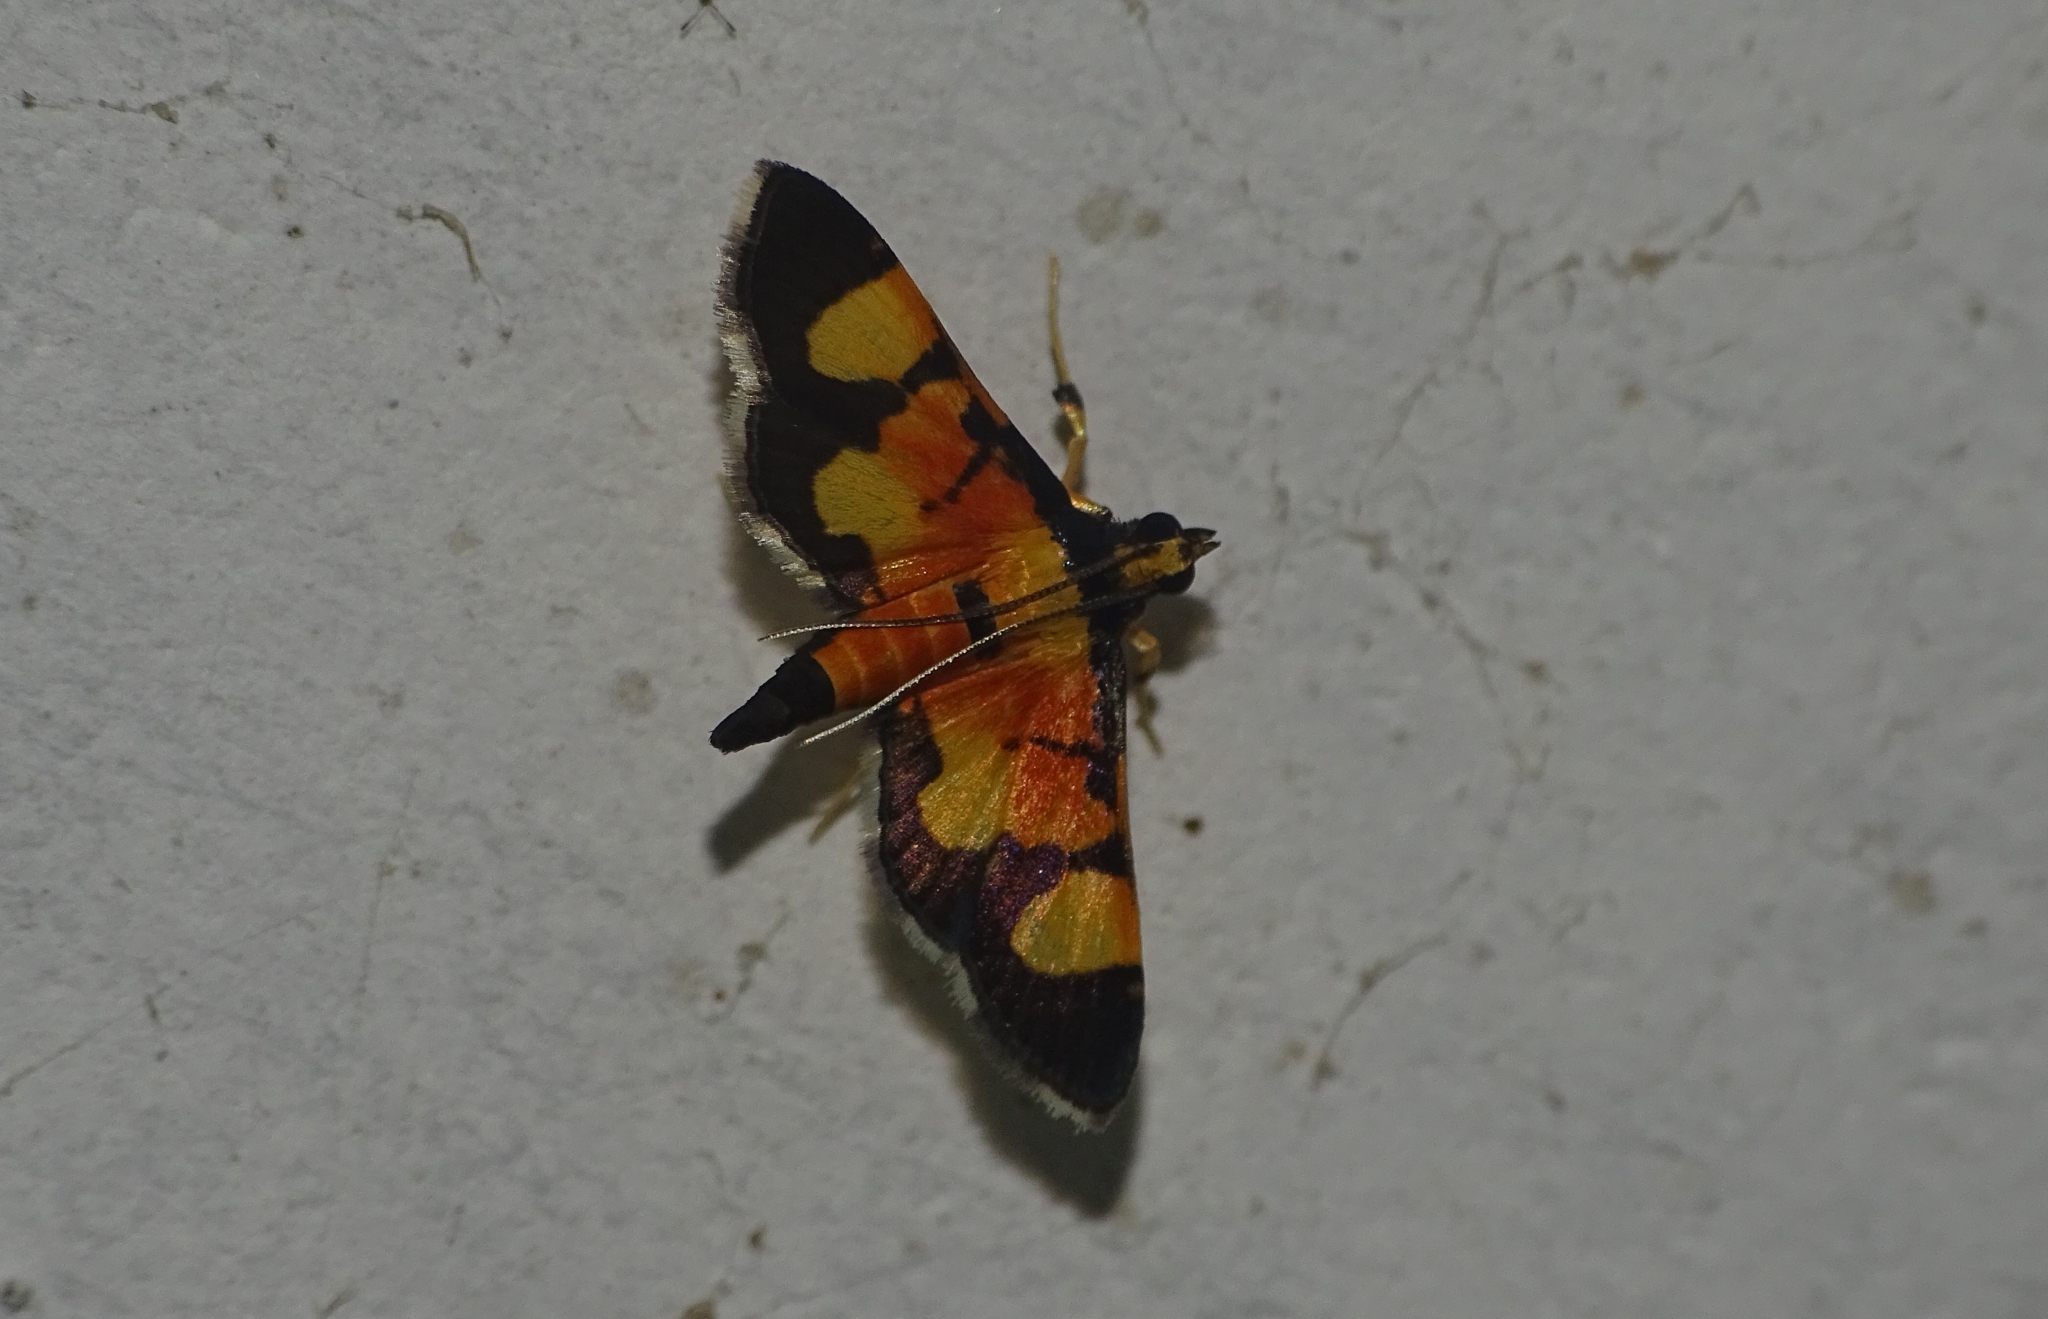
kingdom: Animalia
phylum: Arthropoda
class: Insecta
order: Lepidoptera
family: Crambidae
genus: Aethaloessa
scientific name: Aethaloessa calidalis
